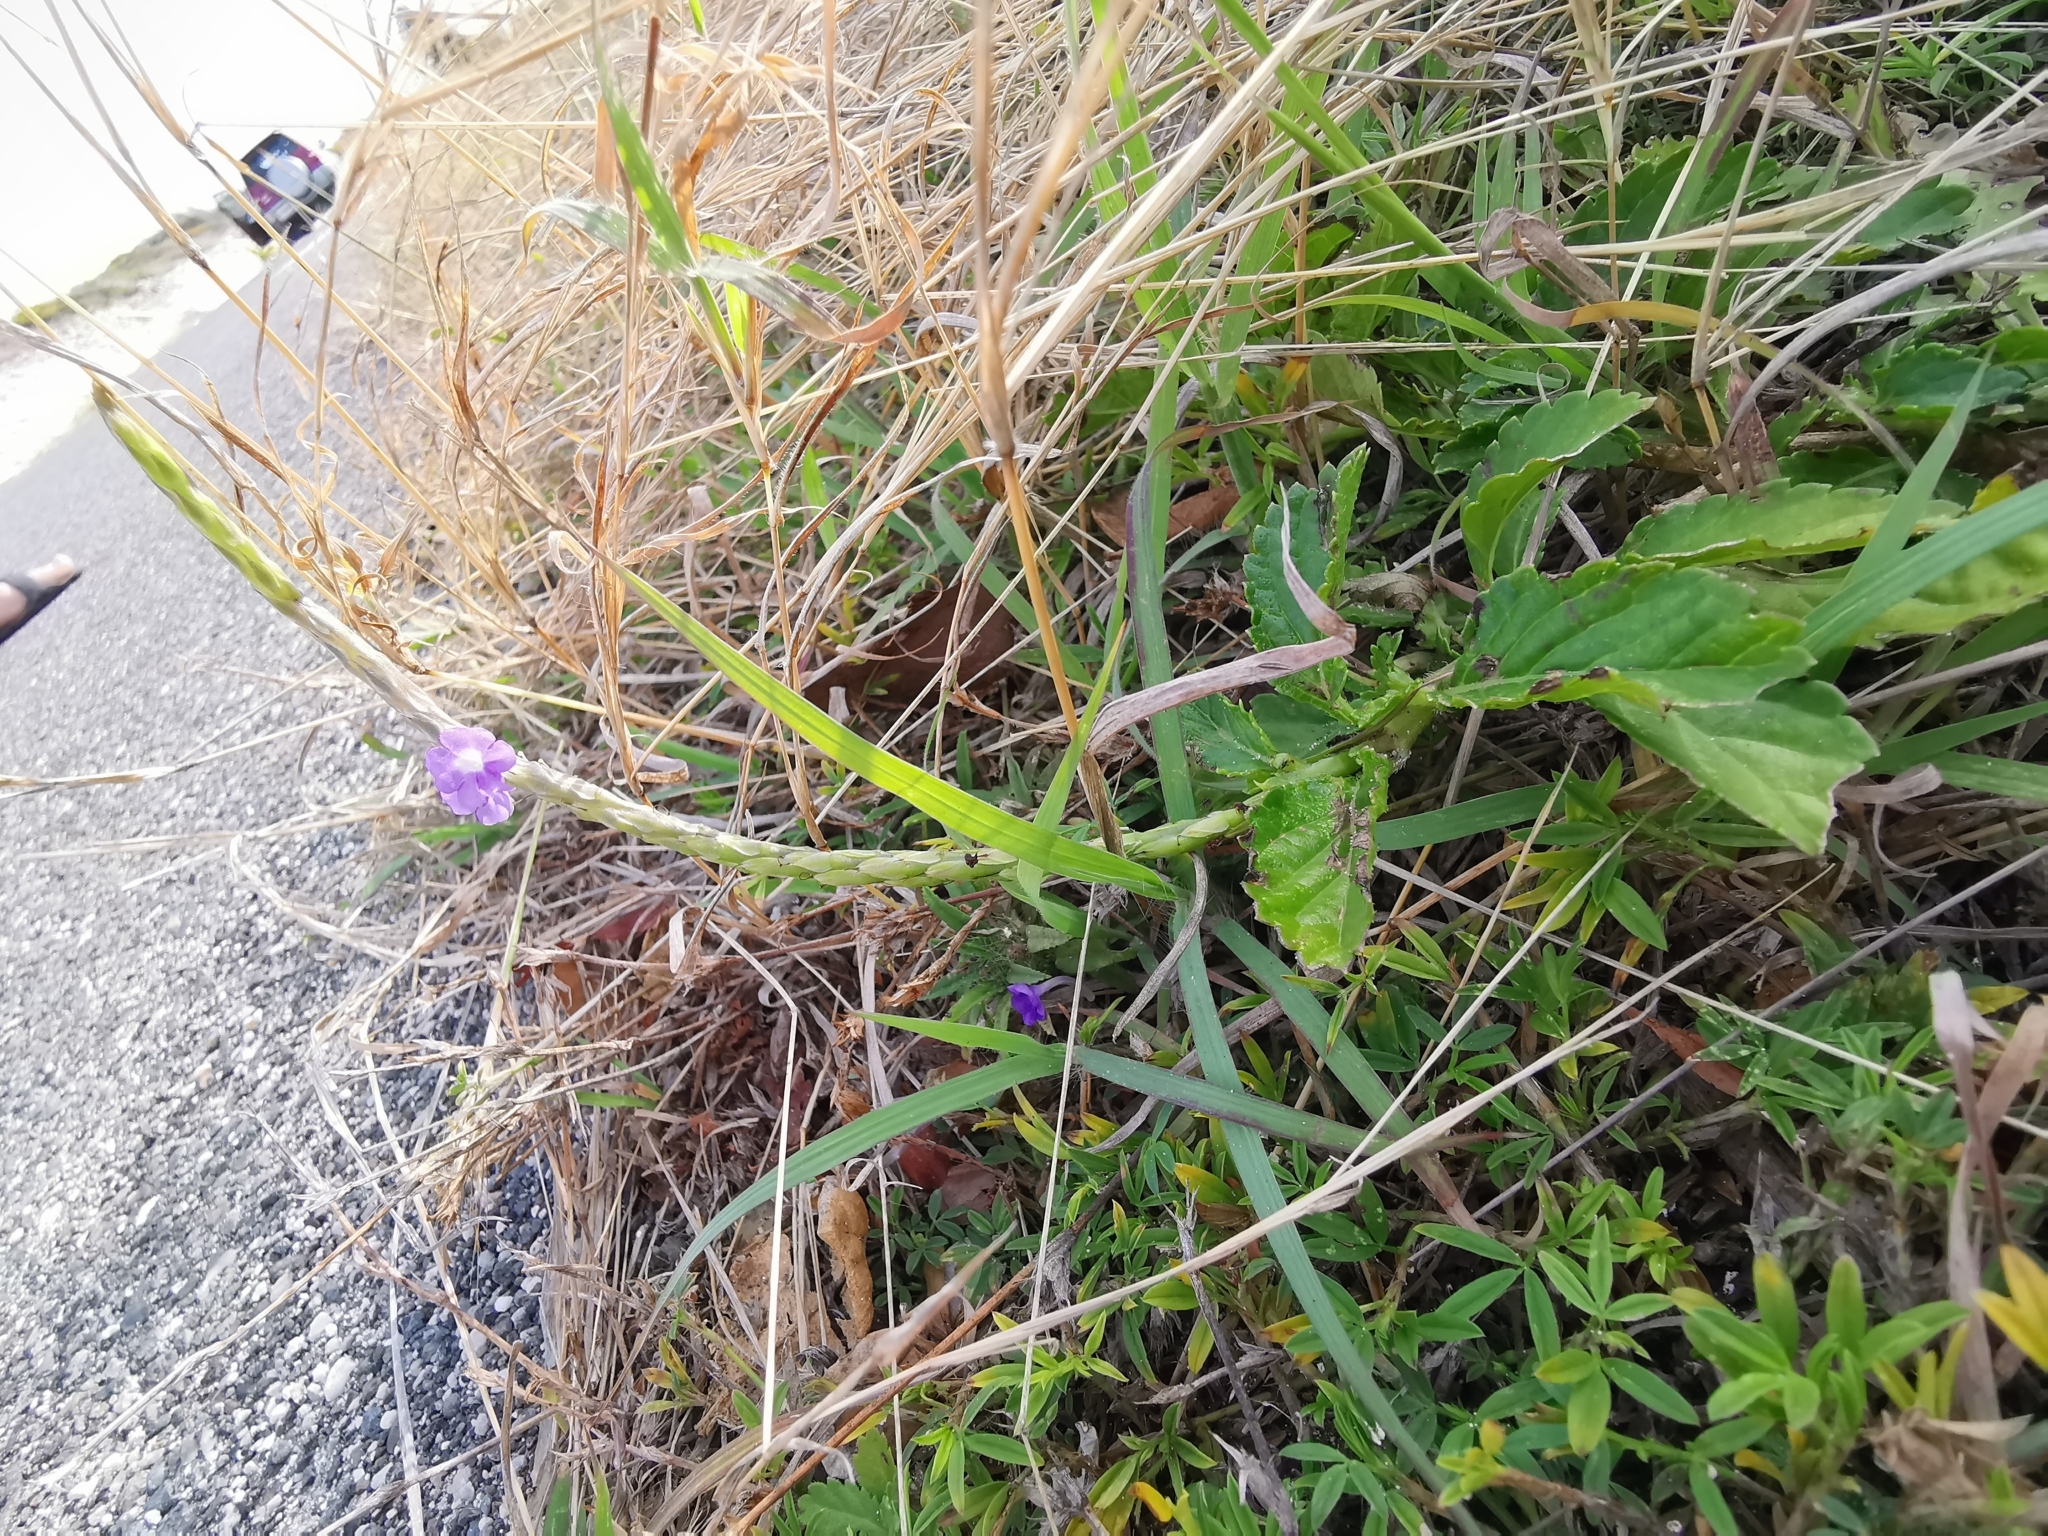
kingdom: Plantae
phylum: Tracheophyta
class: Magnoliopsida
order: Lamiales
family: Verbenaceae
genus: Stachytarpheta
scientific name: Stachytarpheta jamaicensis
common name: Light-blue snakeweed
